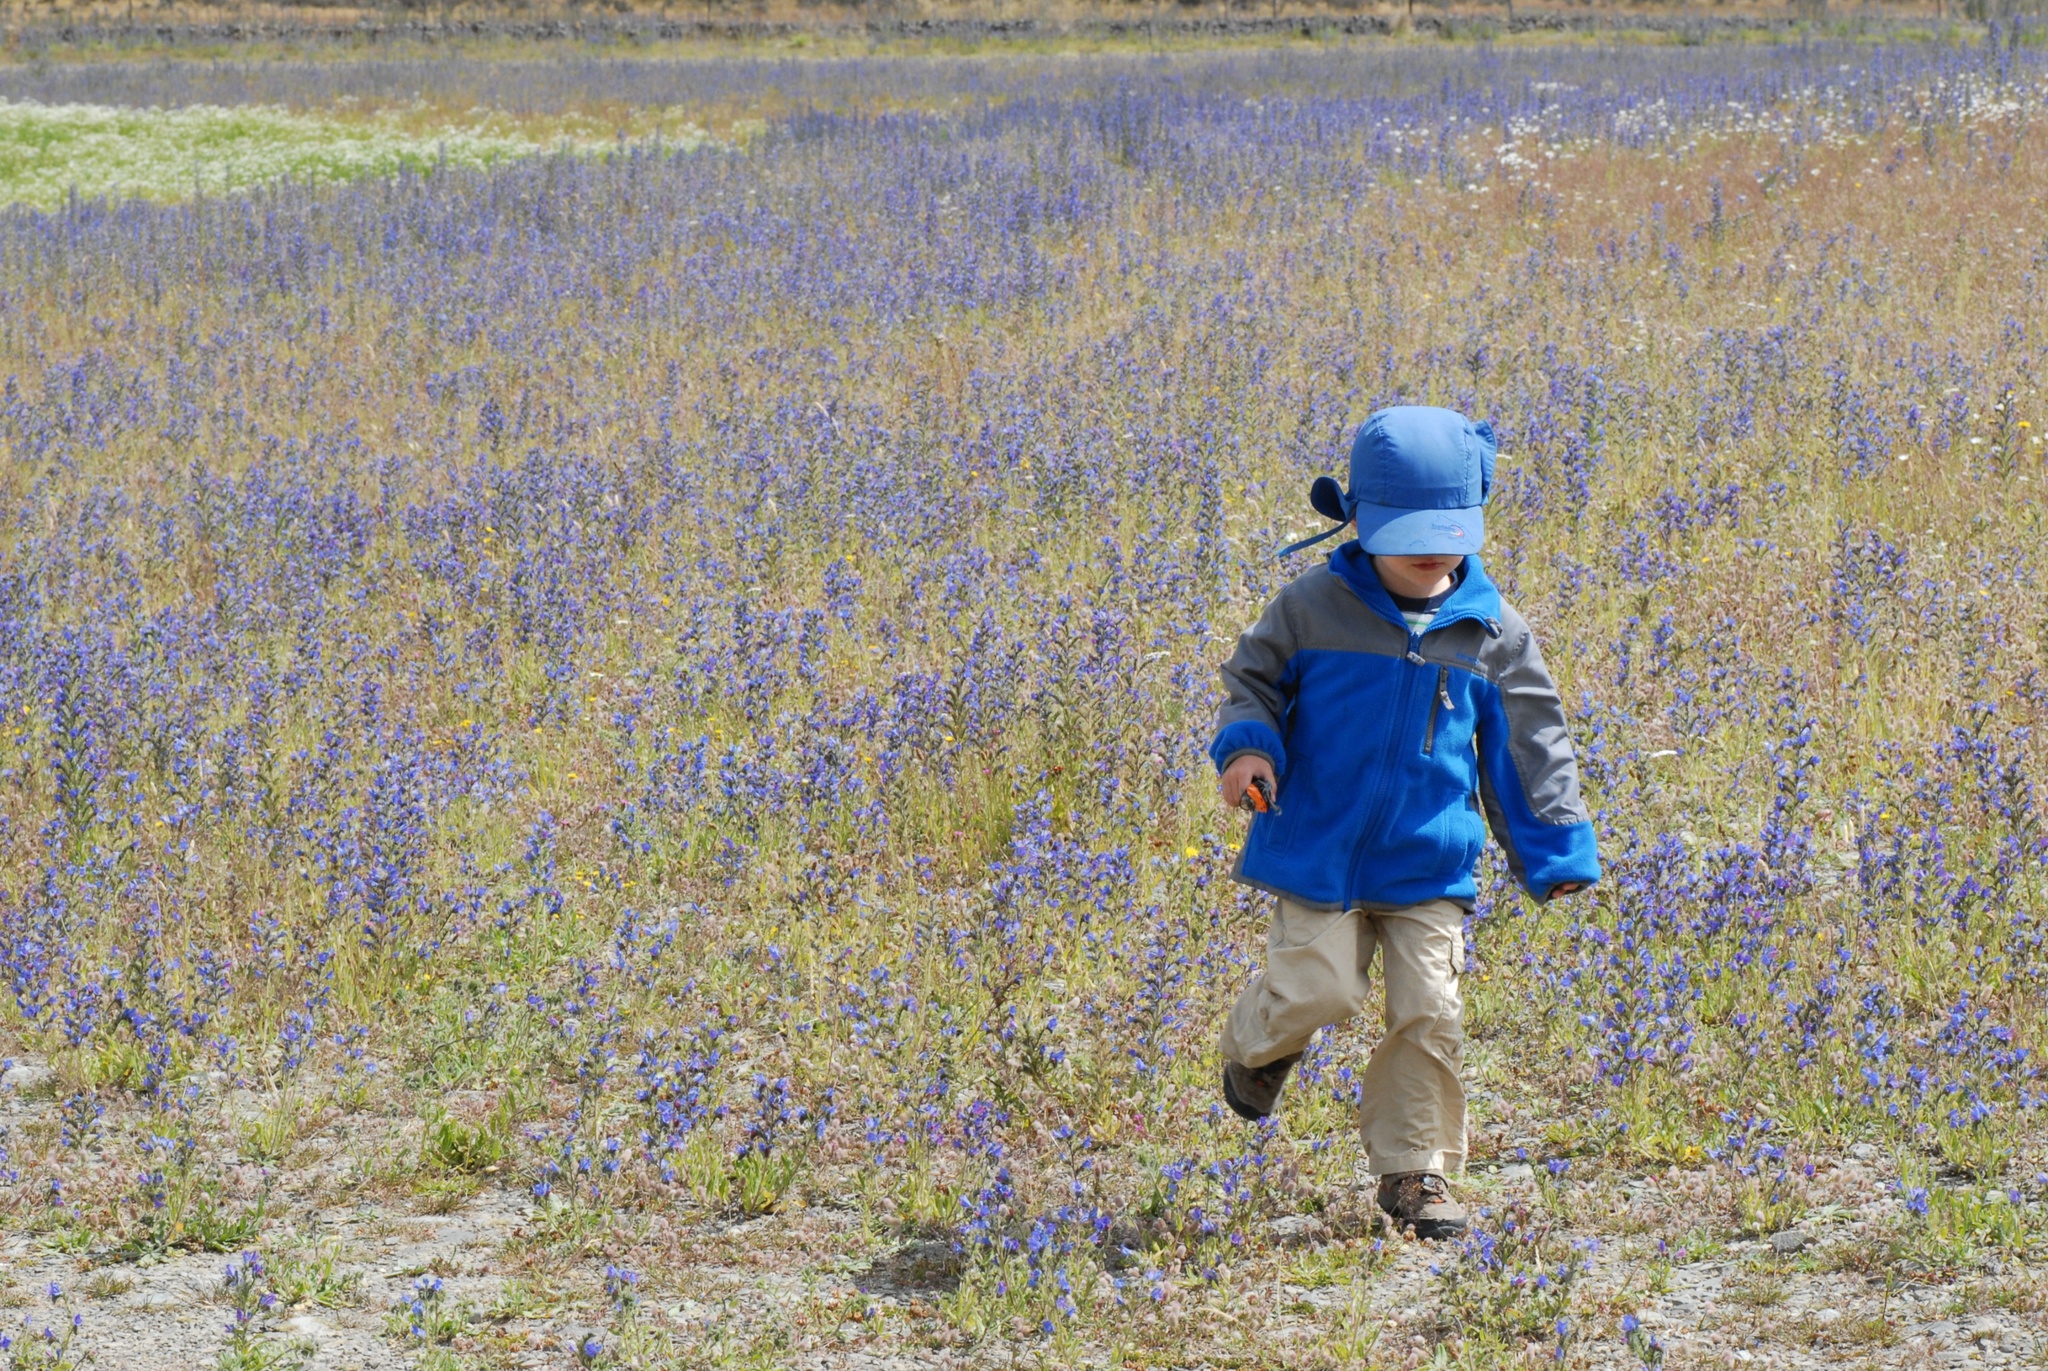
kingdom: Plantae
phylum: Tracheophyta
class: Magnoliopsida
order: Boraginales
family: Boraginaceae
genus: Echium
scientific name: Echium vulgare
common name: Common viper's bugloss
